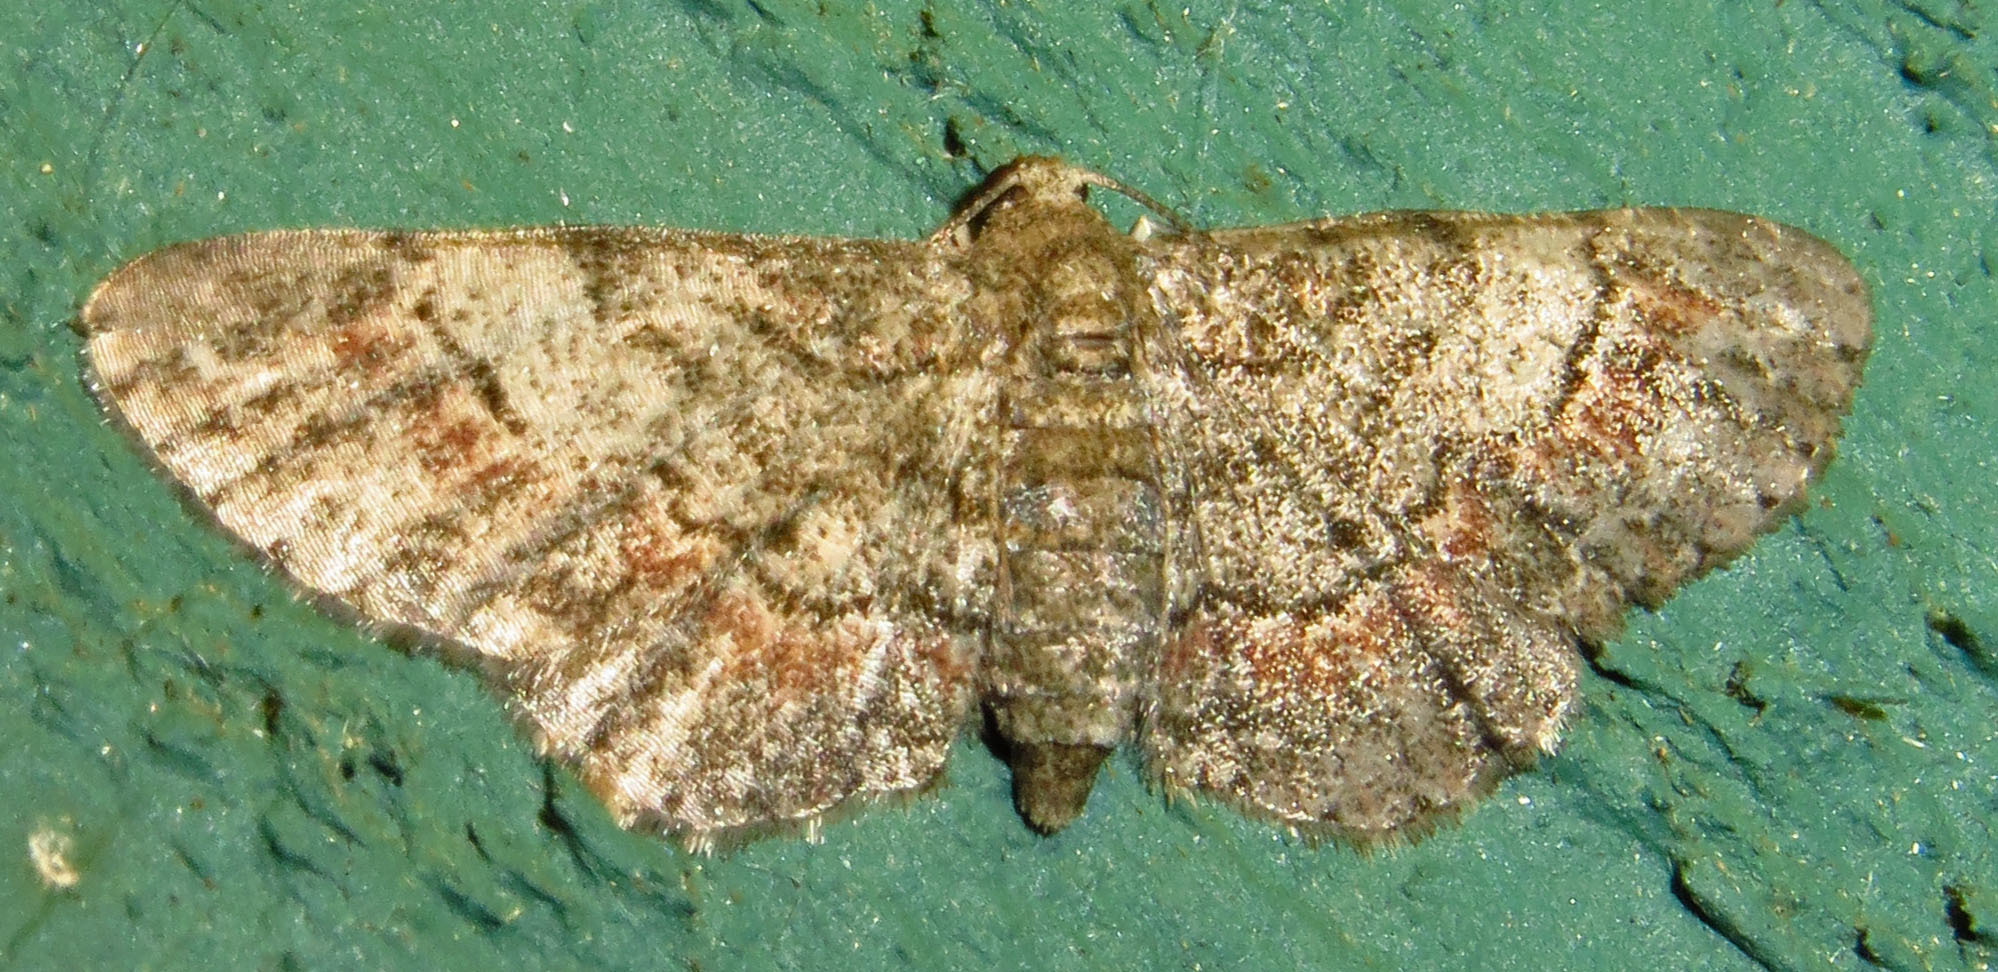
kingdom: Animalia
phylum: Arthropoda
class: Insecta
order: Lepidoptera
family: Geometridae
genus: Glenoides
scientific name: Glenoides texanaria
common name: Texas gray
